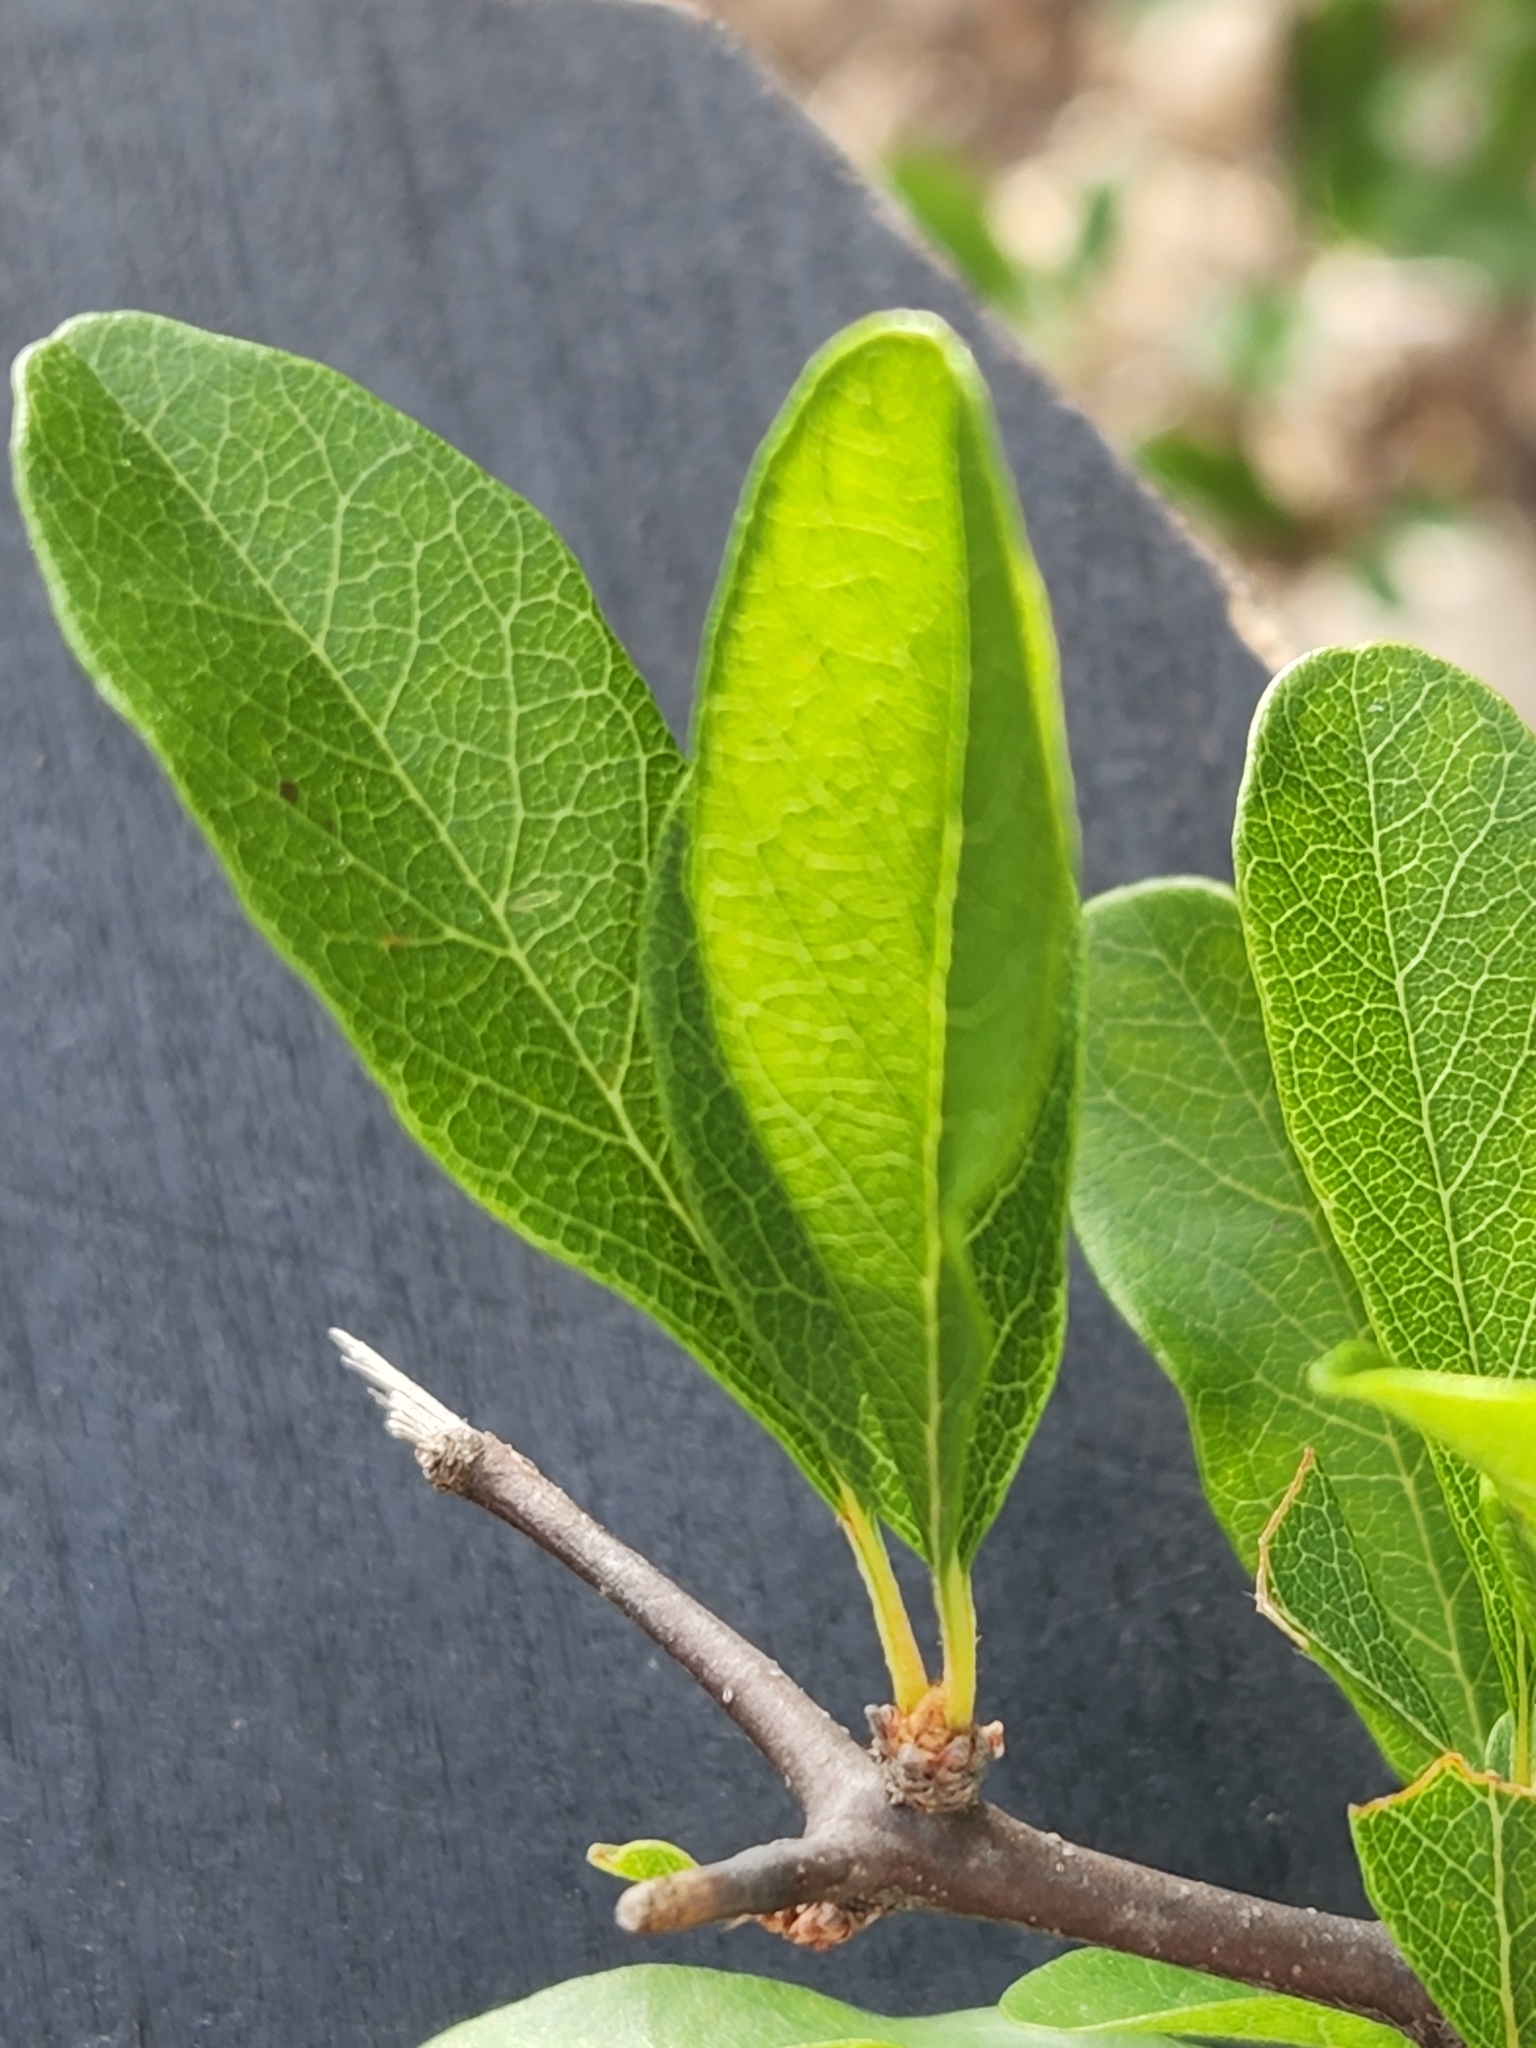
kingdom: Plantae
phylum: Tracheophyta
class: Magnoliopsida
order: Ericales
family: Sapotaceae
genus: Sideroxylon
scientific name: Sideroxylon lanuginosum
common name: Chittamwood
